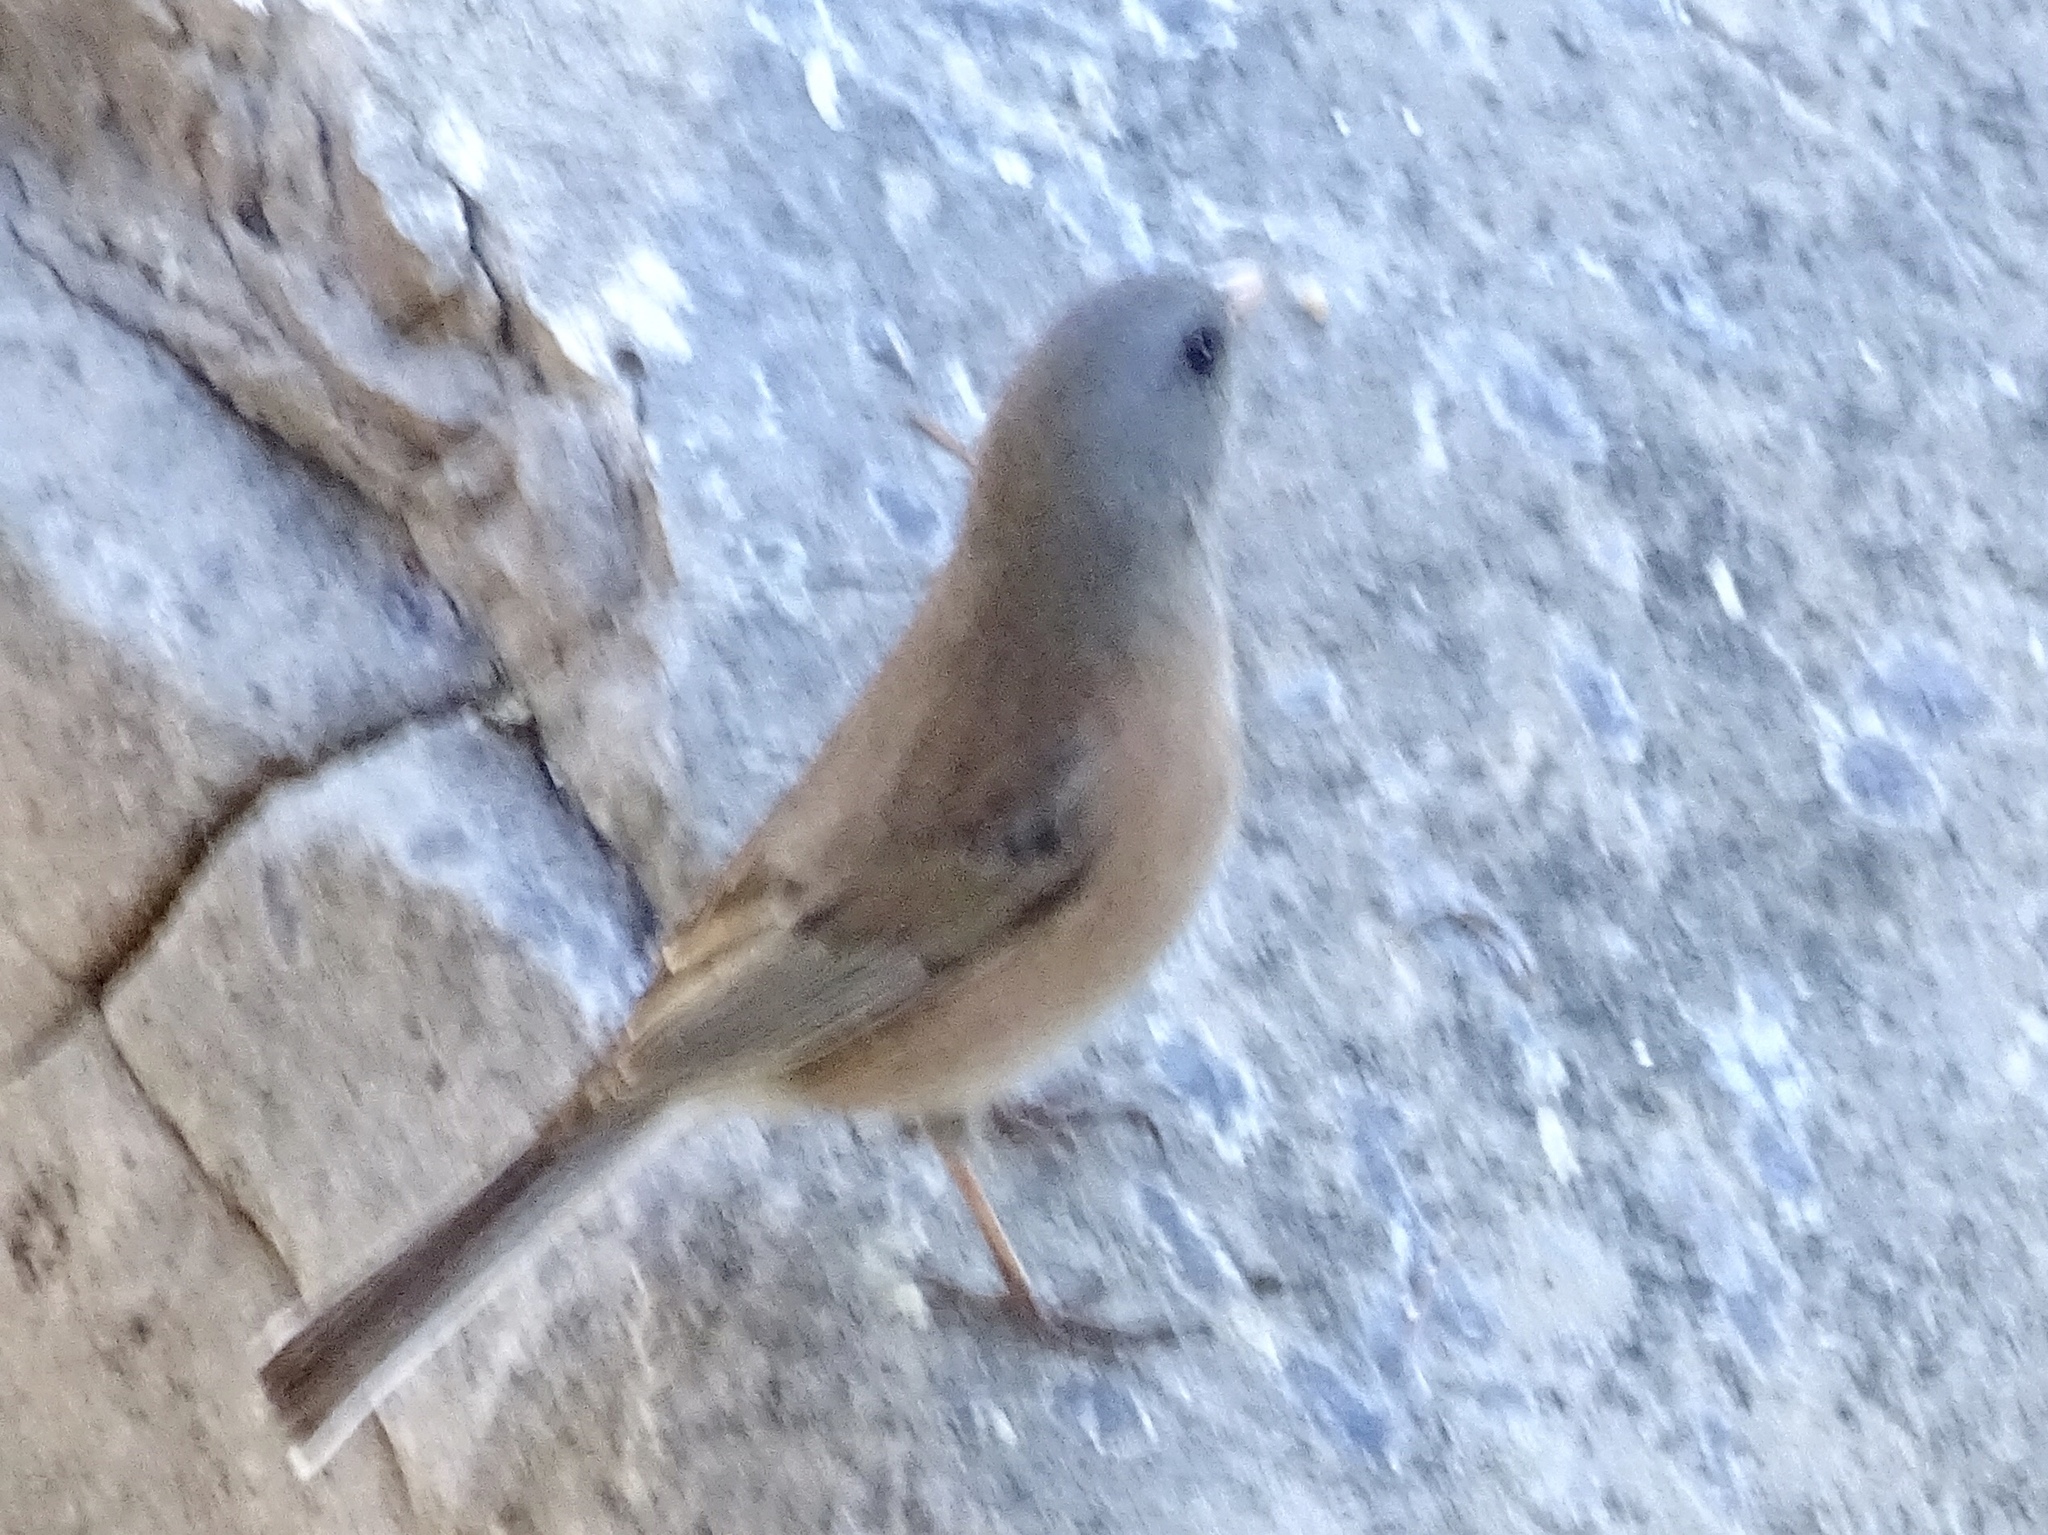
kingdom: Animalia
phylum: Chordata
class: Aves
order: Passeriformes
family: Passerellidae
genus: Junco
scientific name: Junco hyemalis
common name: Dark-eyed junco
